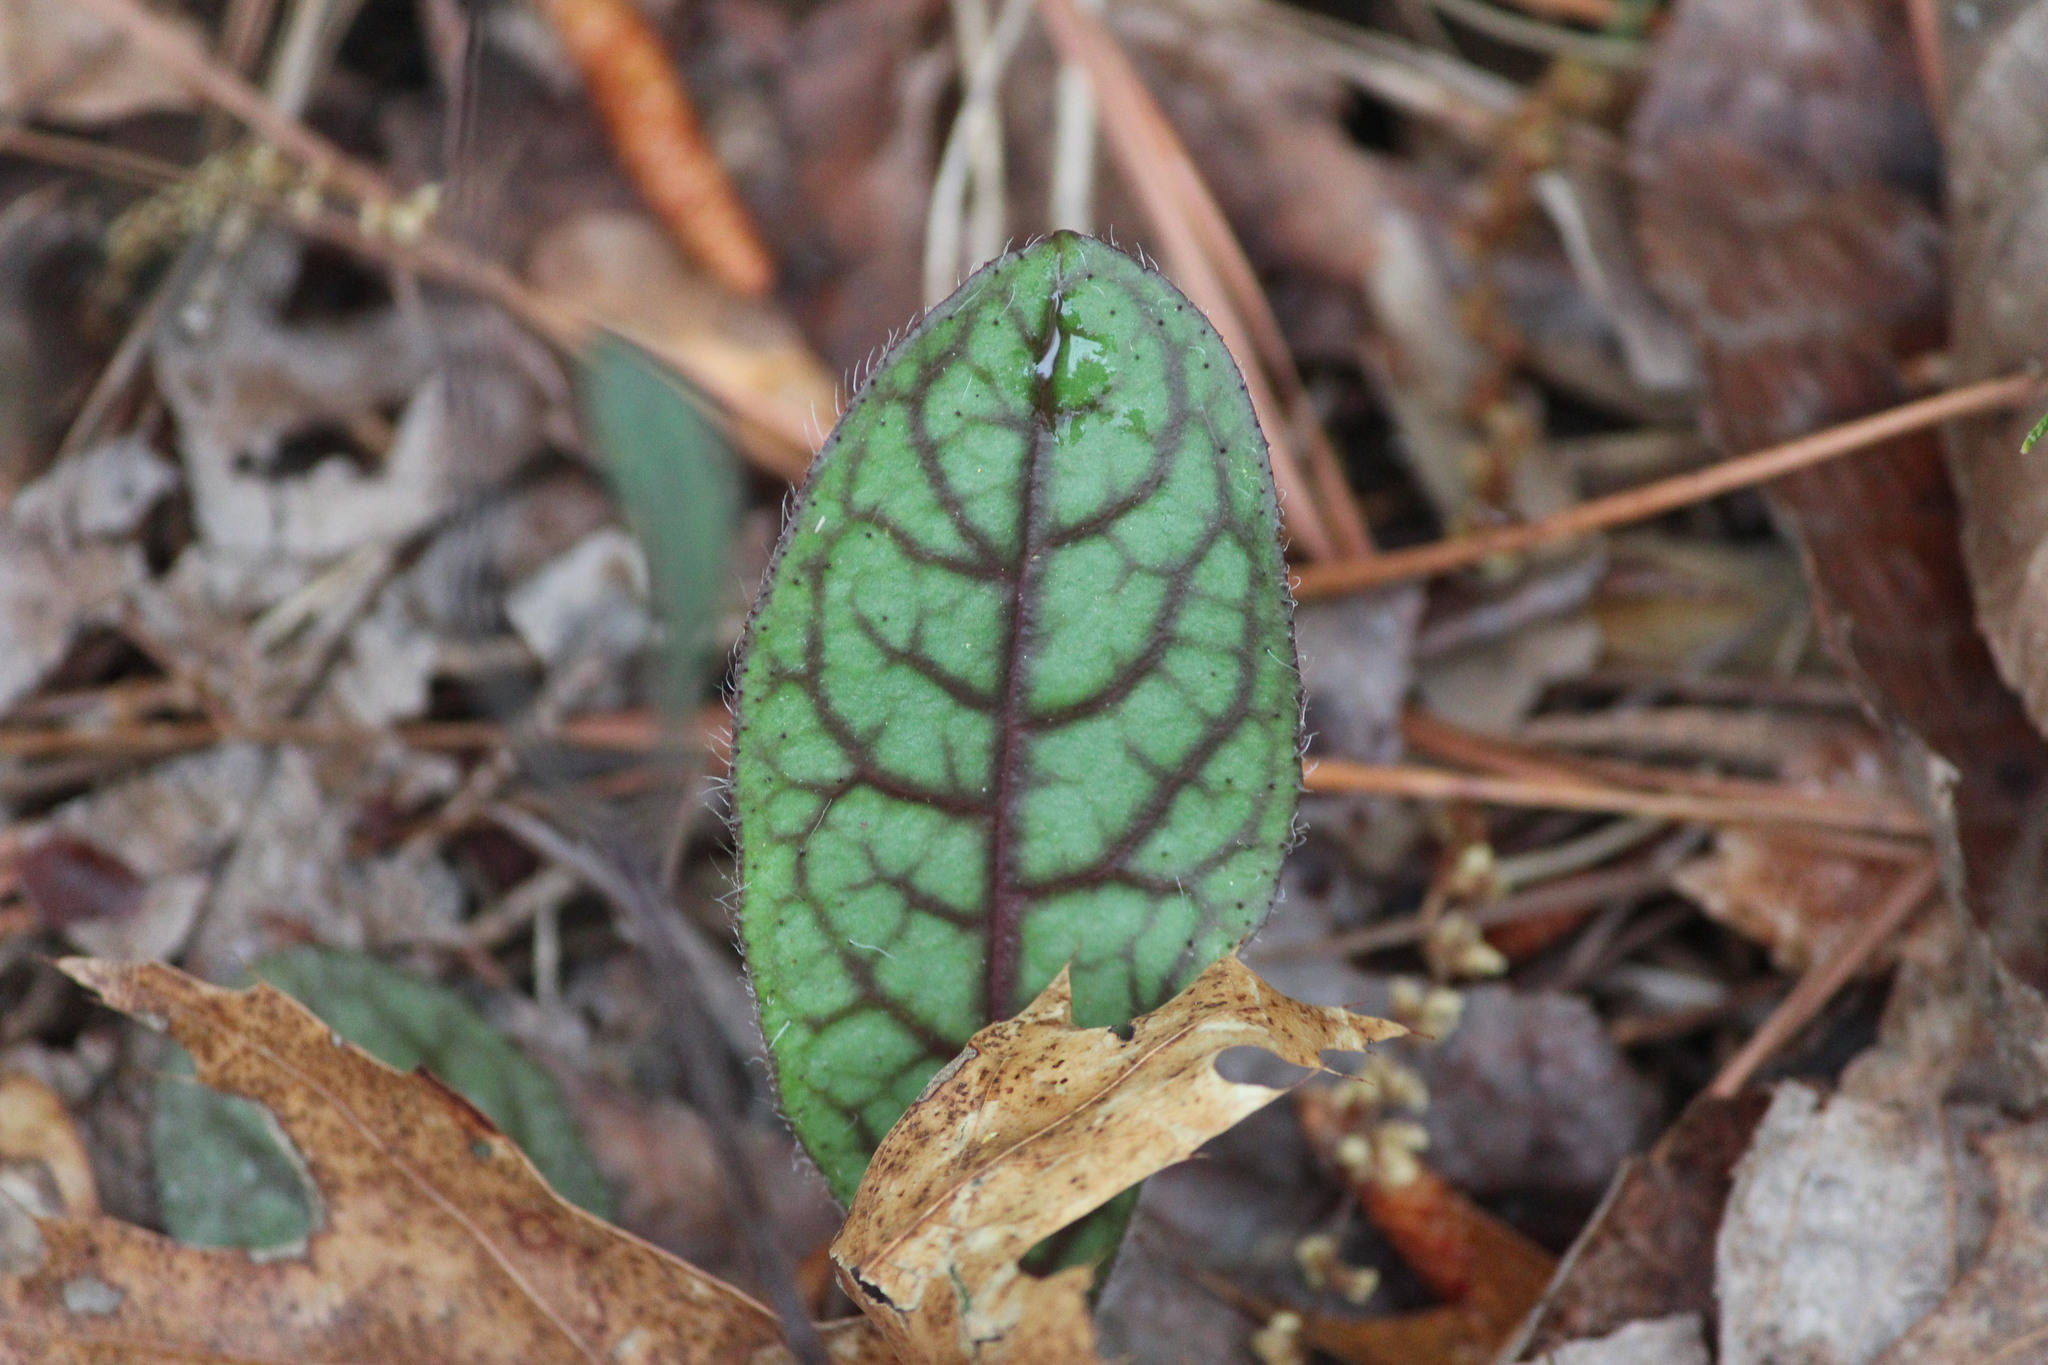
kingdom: Plantae
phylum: Tracheophyta
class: Magnoliopsida
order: Asterales
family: Asteraceae
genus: Hieracium
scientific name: Hieracium venosum
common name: Rattlesnake hawkweed
